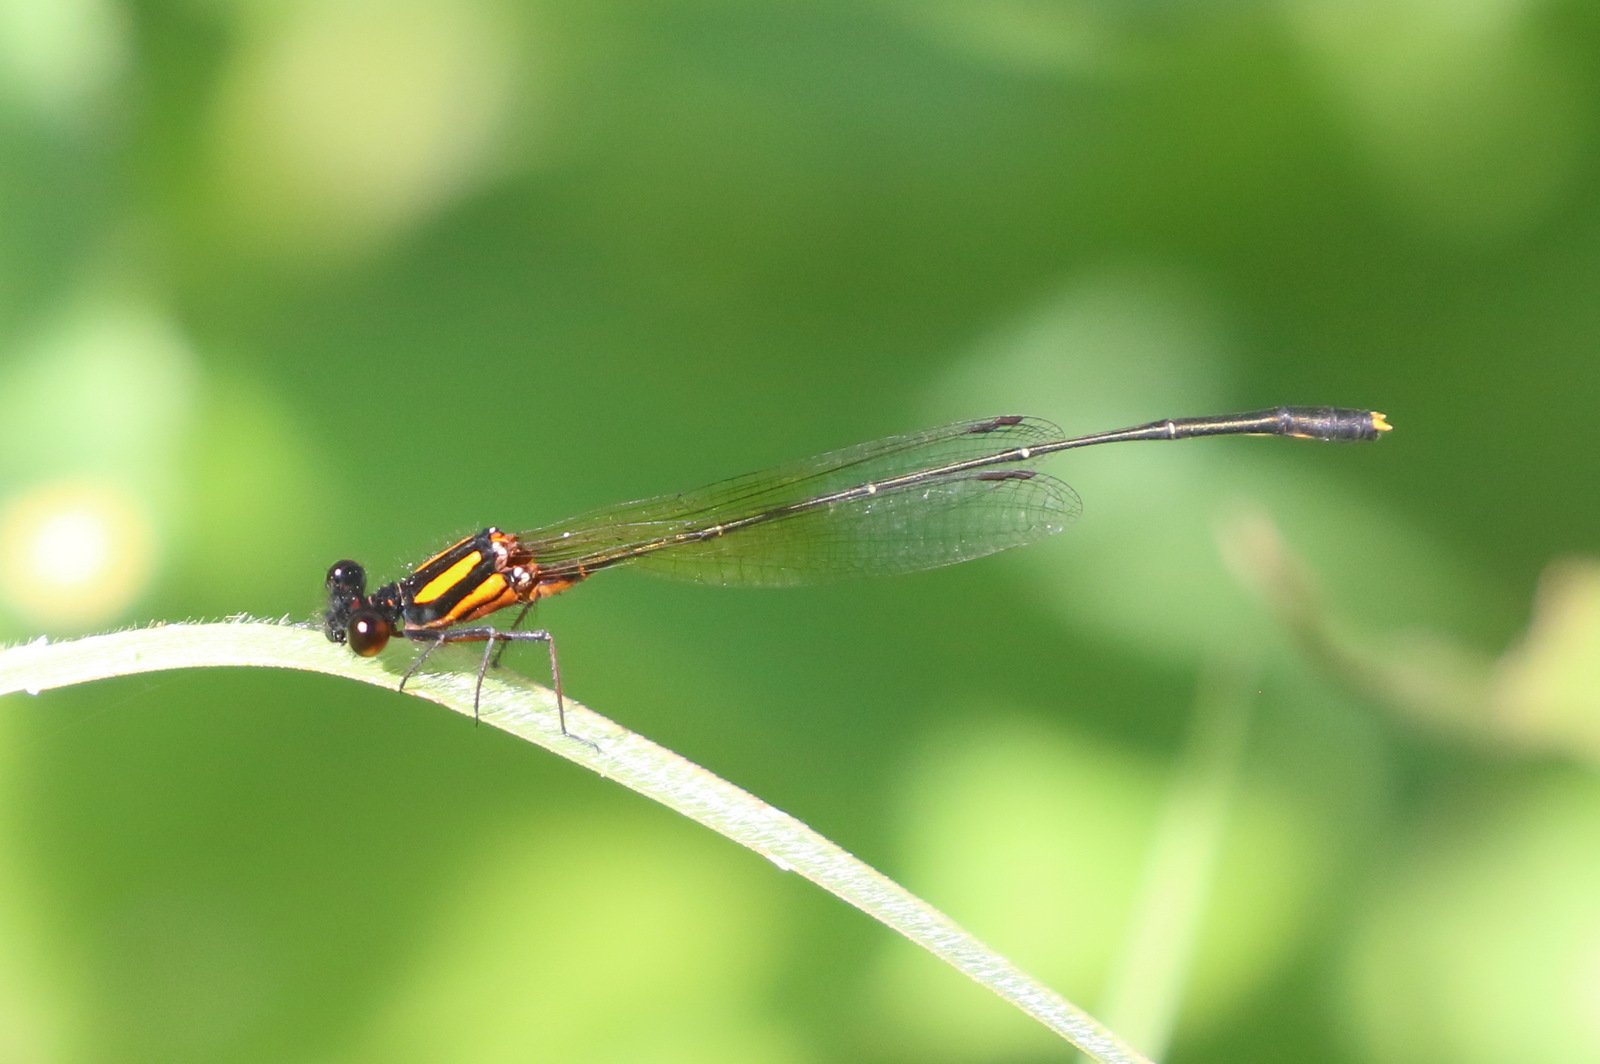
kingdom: Animalia
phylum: Arthropoda
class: Insecta
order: Odonata
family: Platycnemididae
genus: Nososticta
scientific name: Nososticta solida
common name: Orange threadtail
